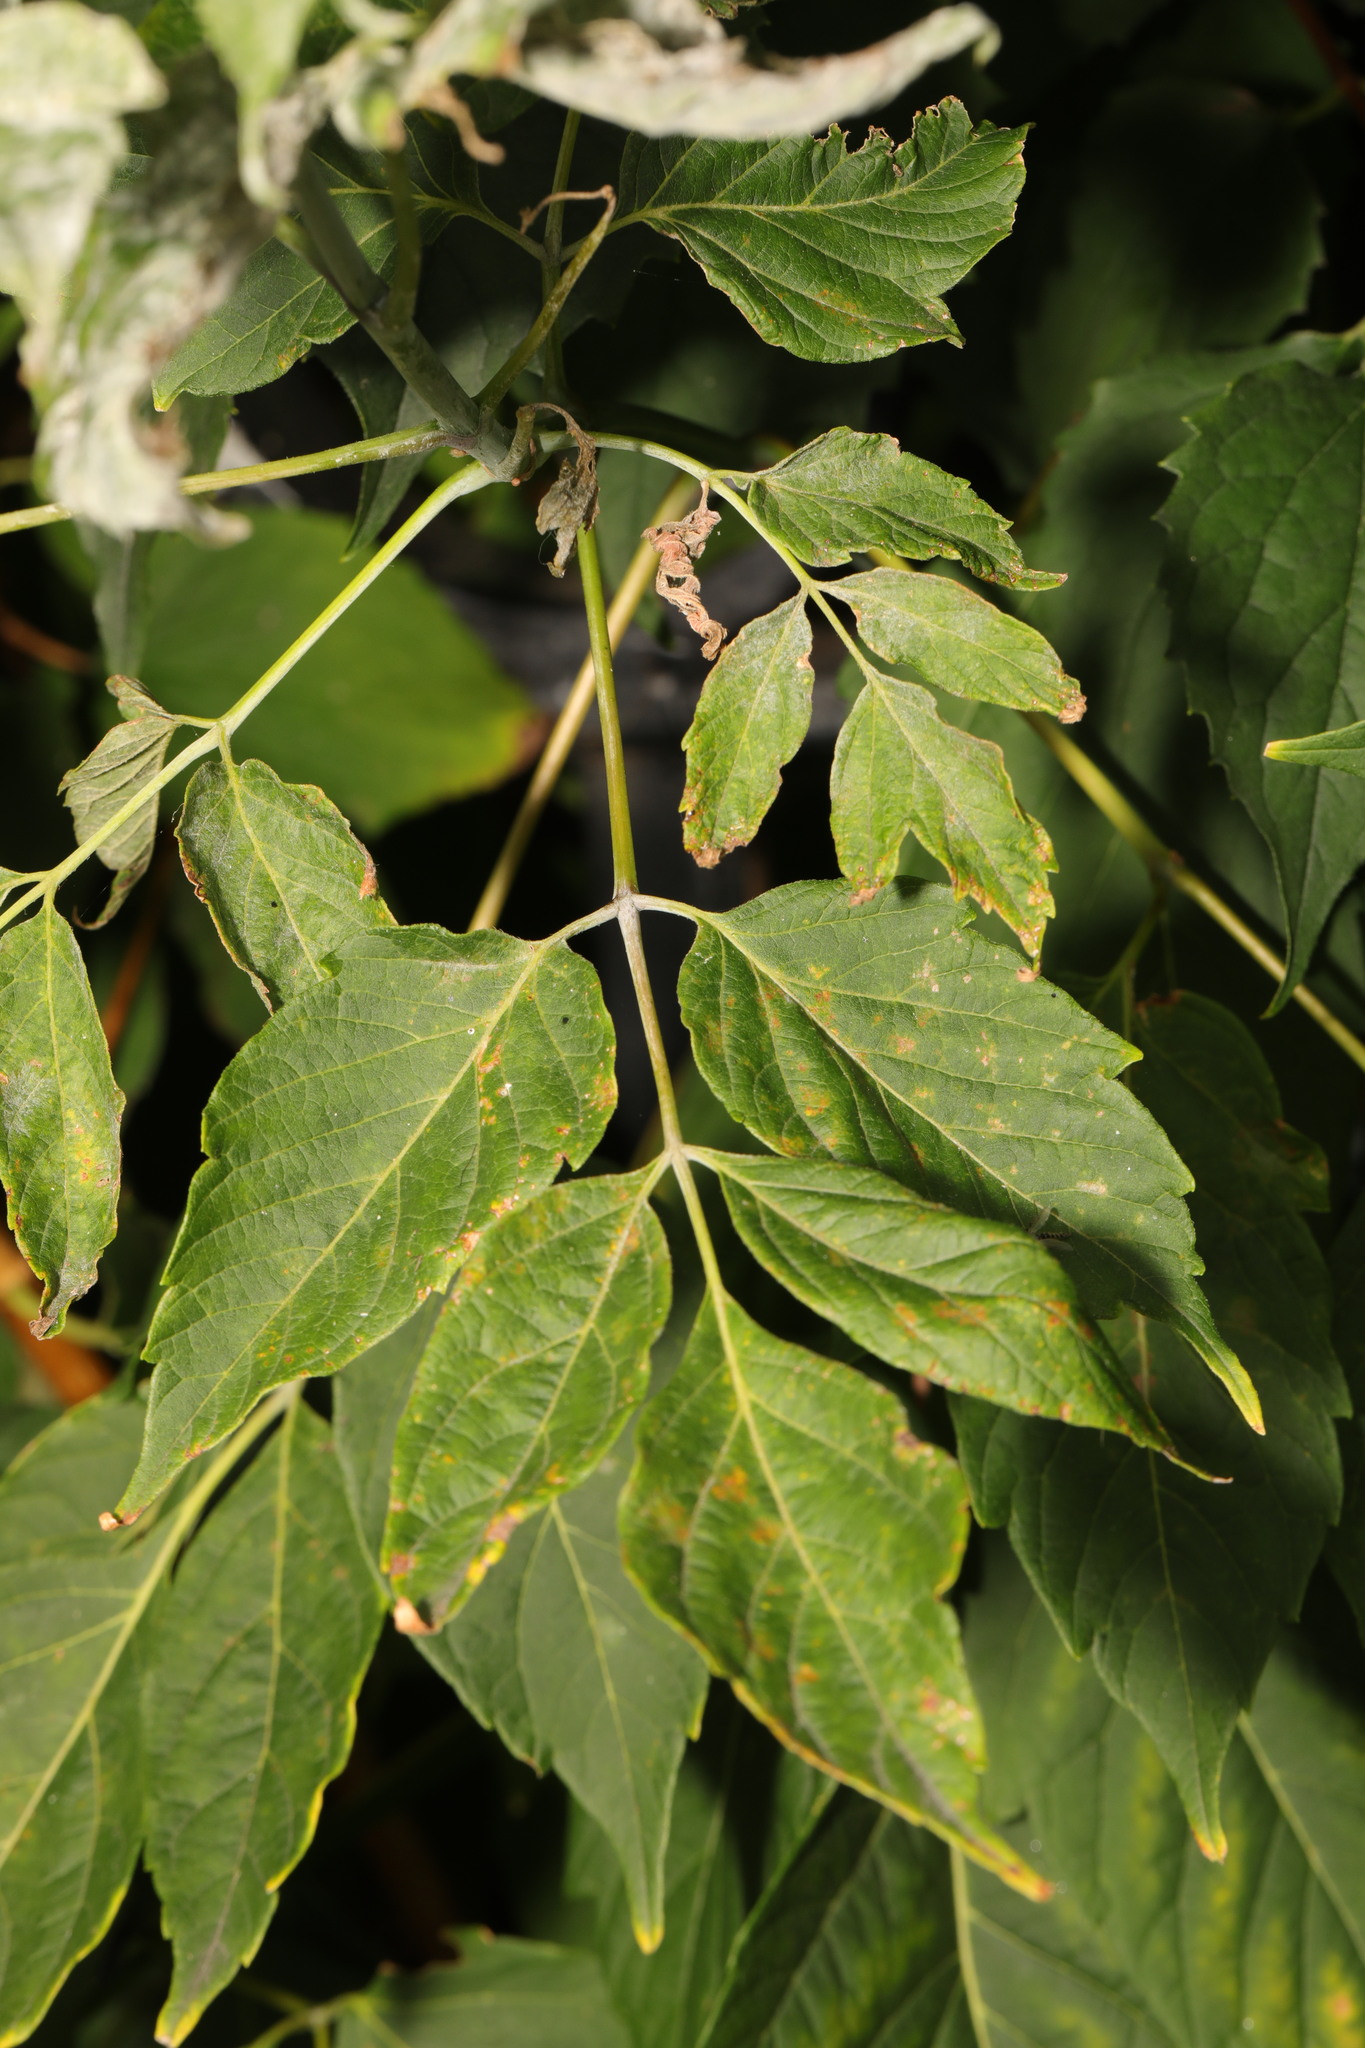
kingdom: Plantae
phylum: Tracheophyta
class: Magnoliopsida
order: Sapindales
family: Sapindaceae
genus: Acer
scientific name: Acer negundo
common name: Ashleaf maple
